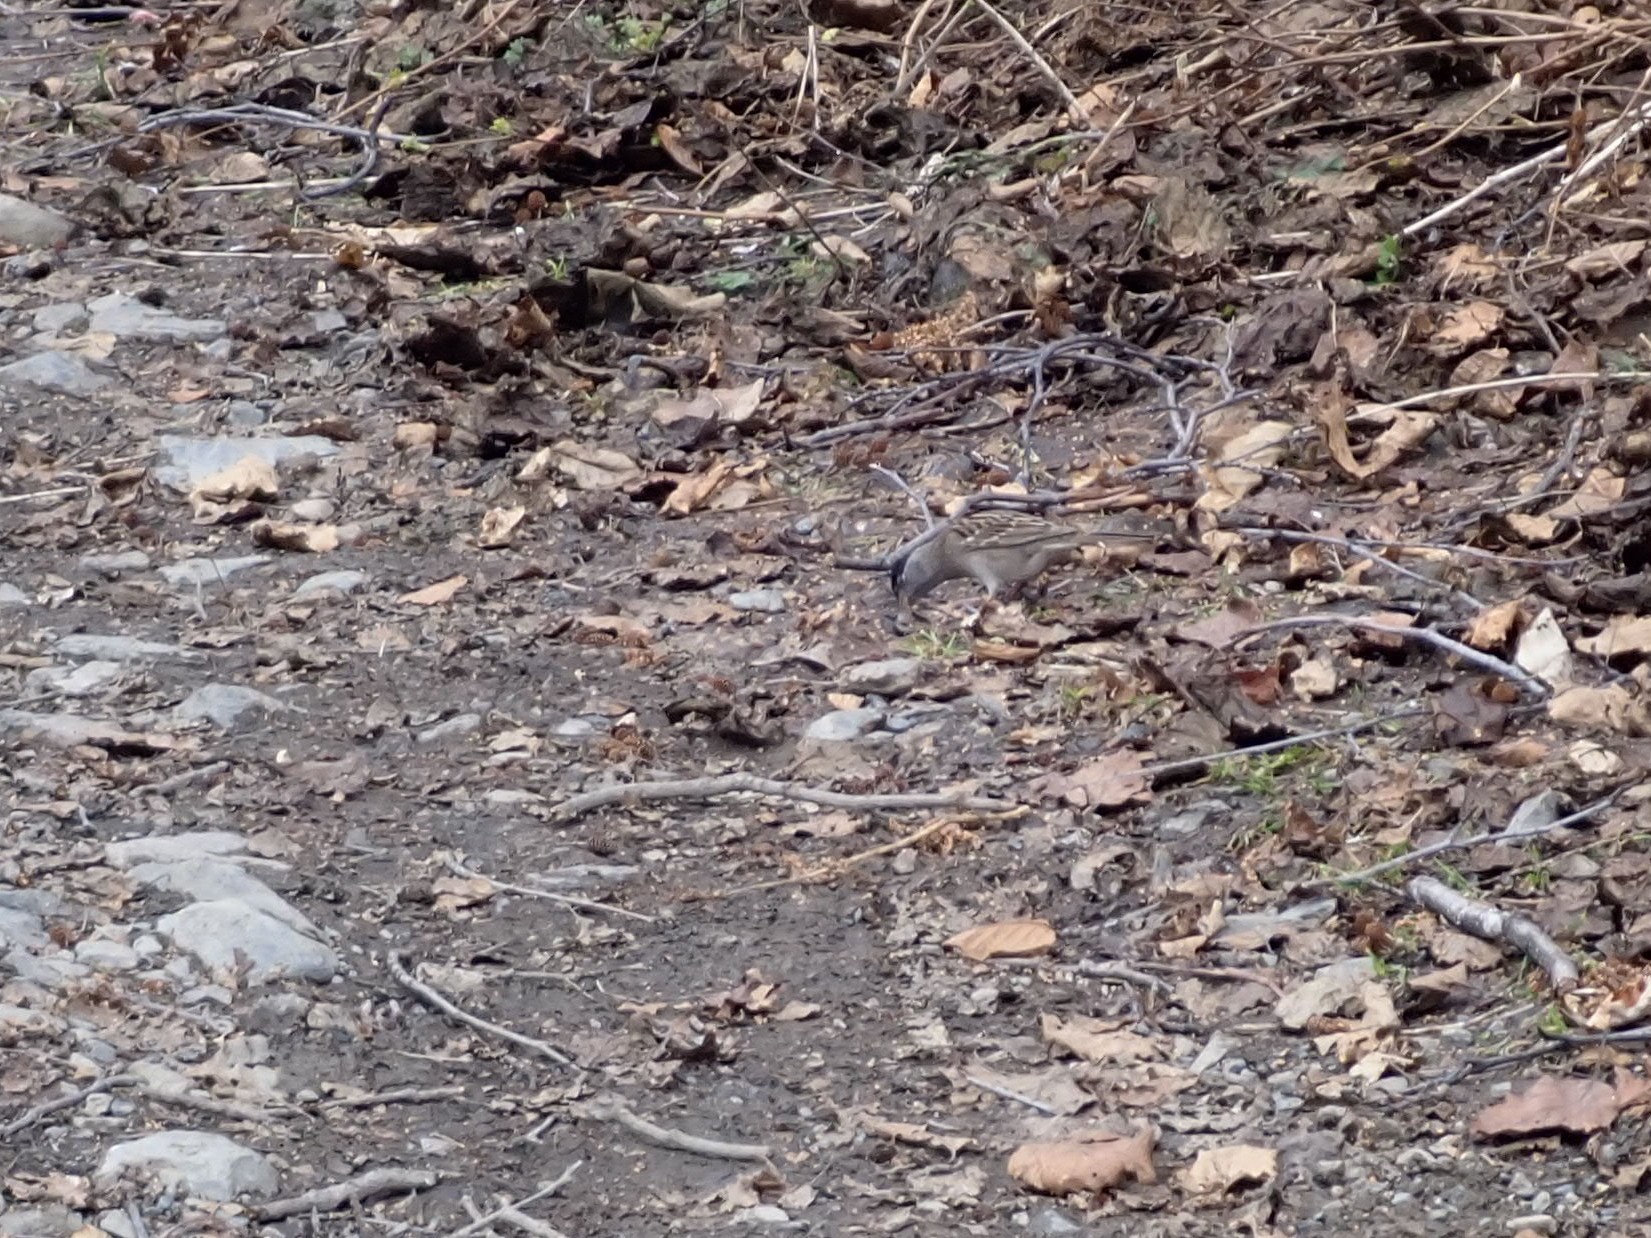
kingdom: Animalia
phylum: Chordata
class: Aves
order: Passeriformes
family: Fringillidae
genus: Leucosticte
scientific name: Leucosticte tephrocotis
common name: Gray-crowned rosy-finch
